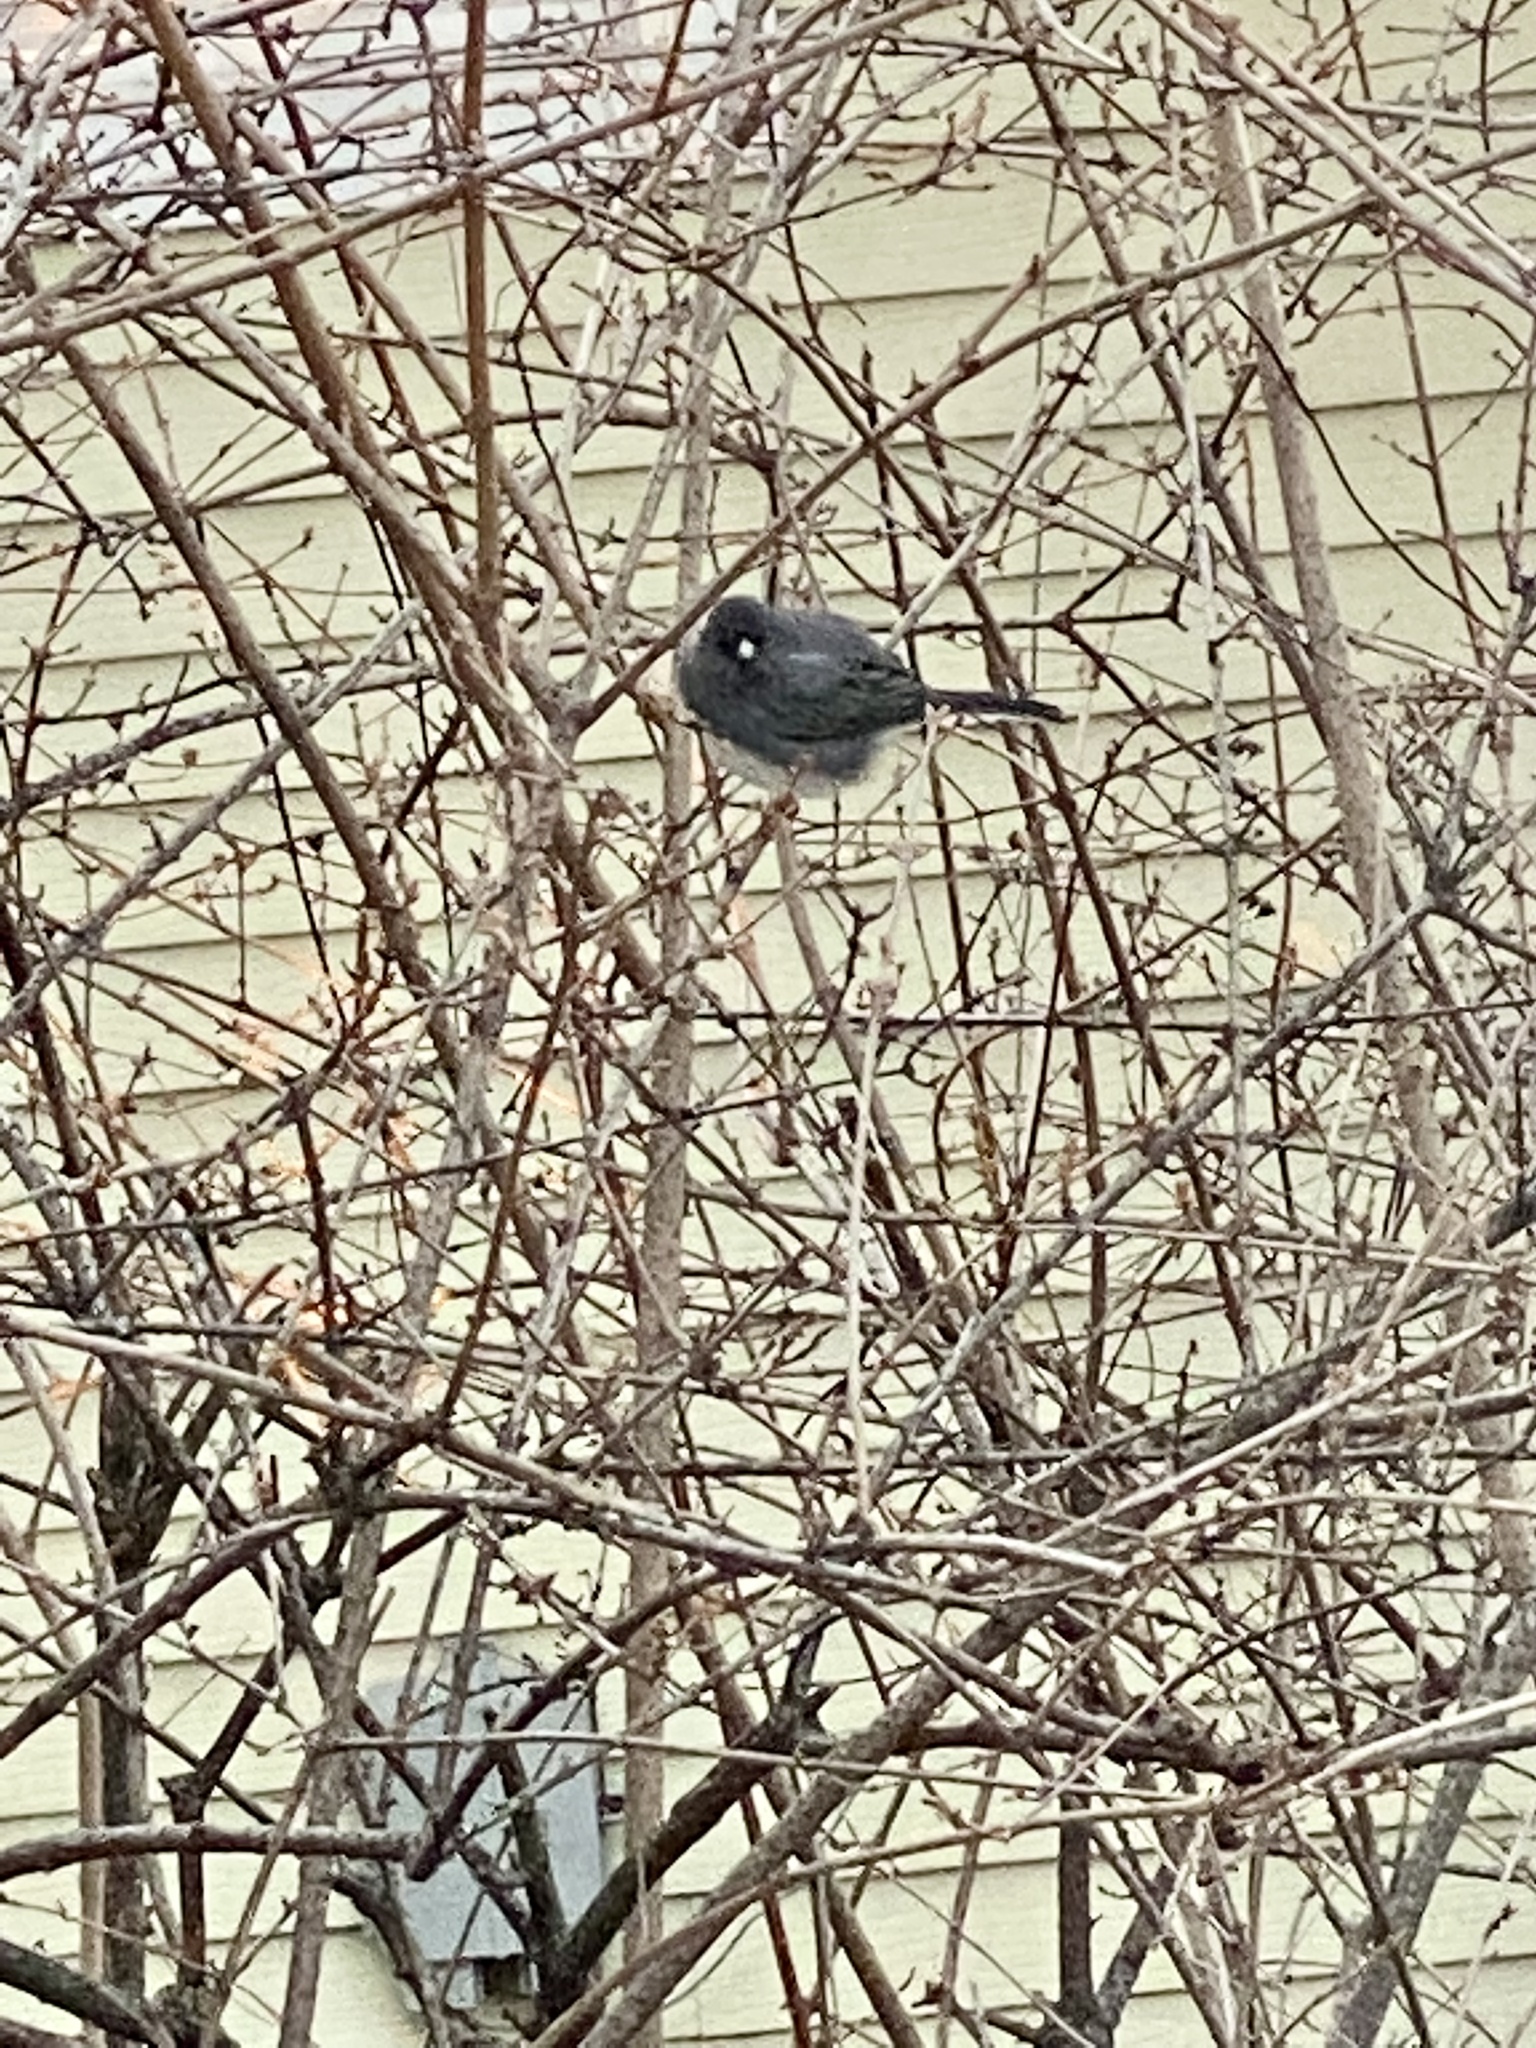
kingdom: Animalia
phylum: Chordata
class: Aves
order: Passeriformes
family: Passerellidae
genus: Junco
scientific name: Junco hyemalis
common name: Dark-eyed junco
